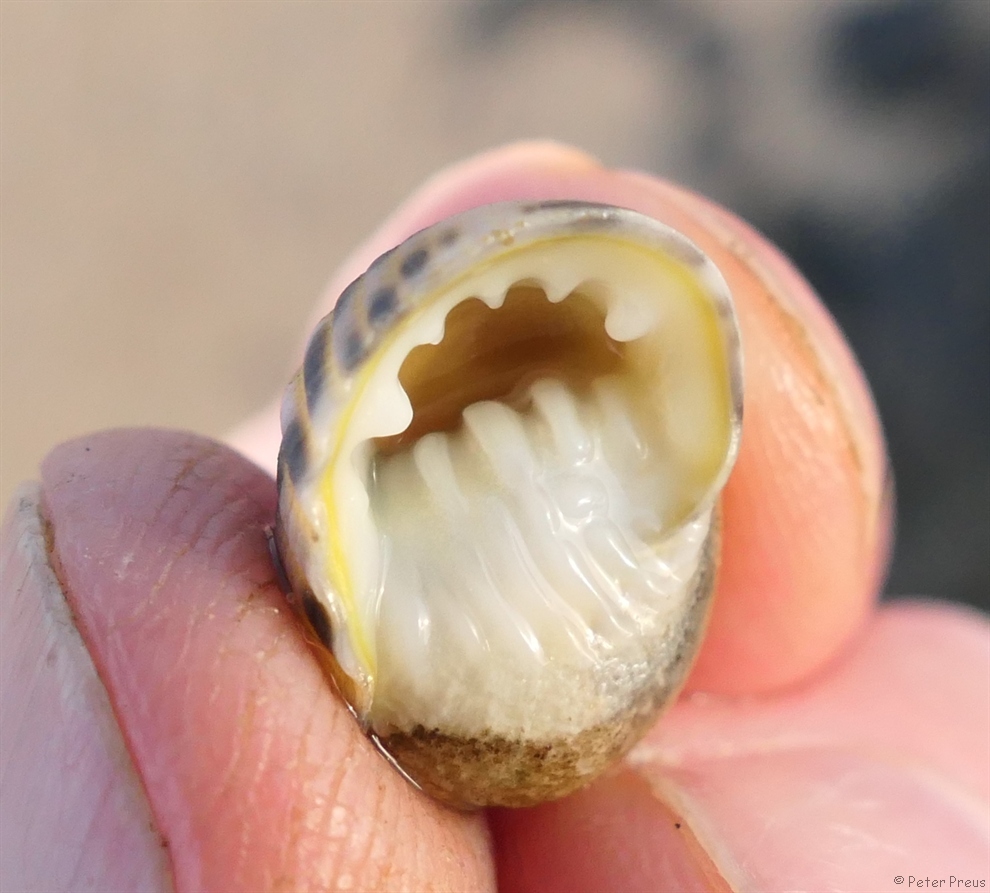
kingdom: Animalia
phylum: Mollusca
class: Gastropoda
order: Cycloneritida
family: Neritidae
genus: Nerita
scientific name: Nerita plicata
